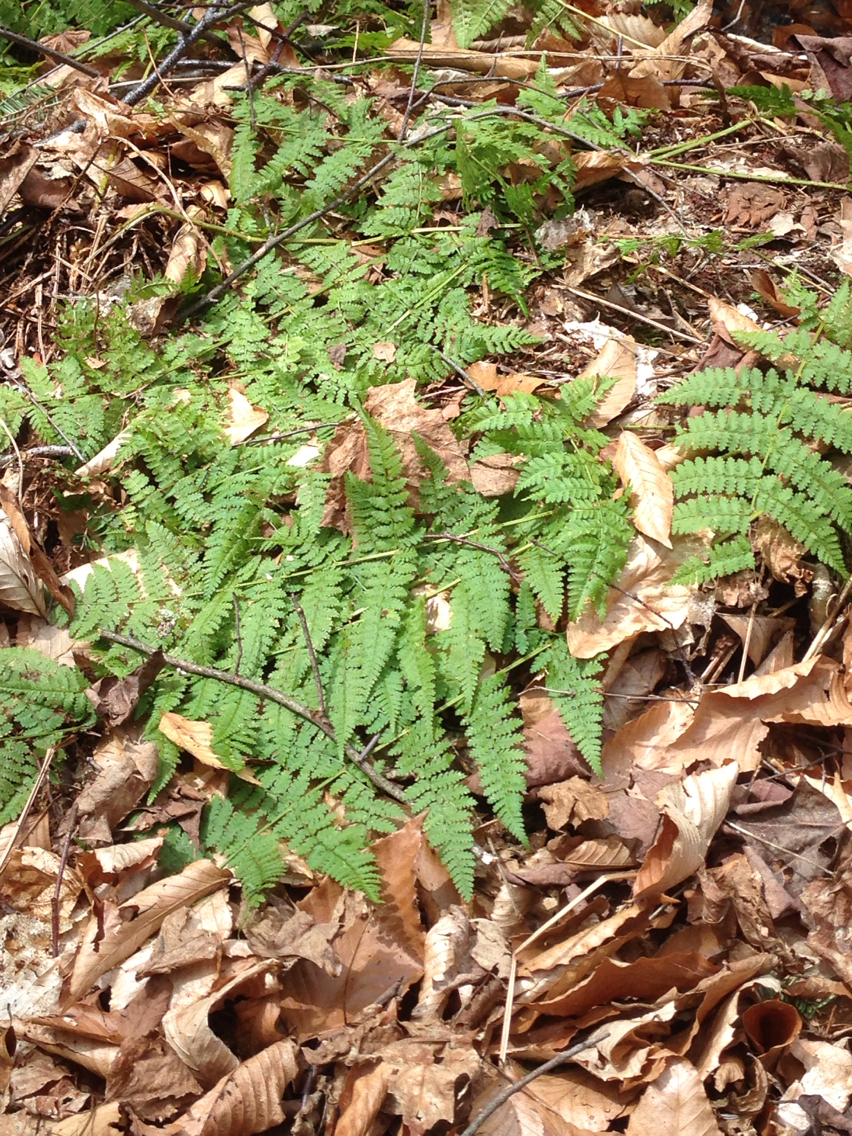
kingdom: Plantae
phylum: Tracheophyta
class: Polypodiopsida
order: Polypodiales
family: Dryopteridaceae
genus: Dryopteris
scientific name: Dryopteris intermedia
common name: Evergreen wood fern
